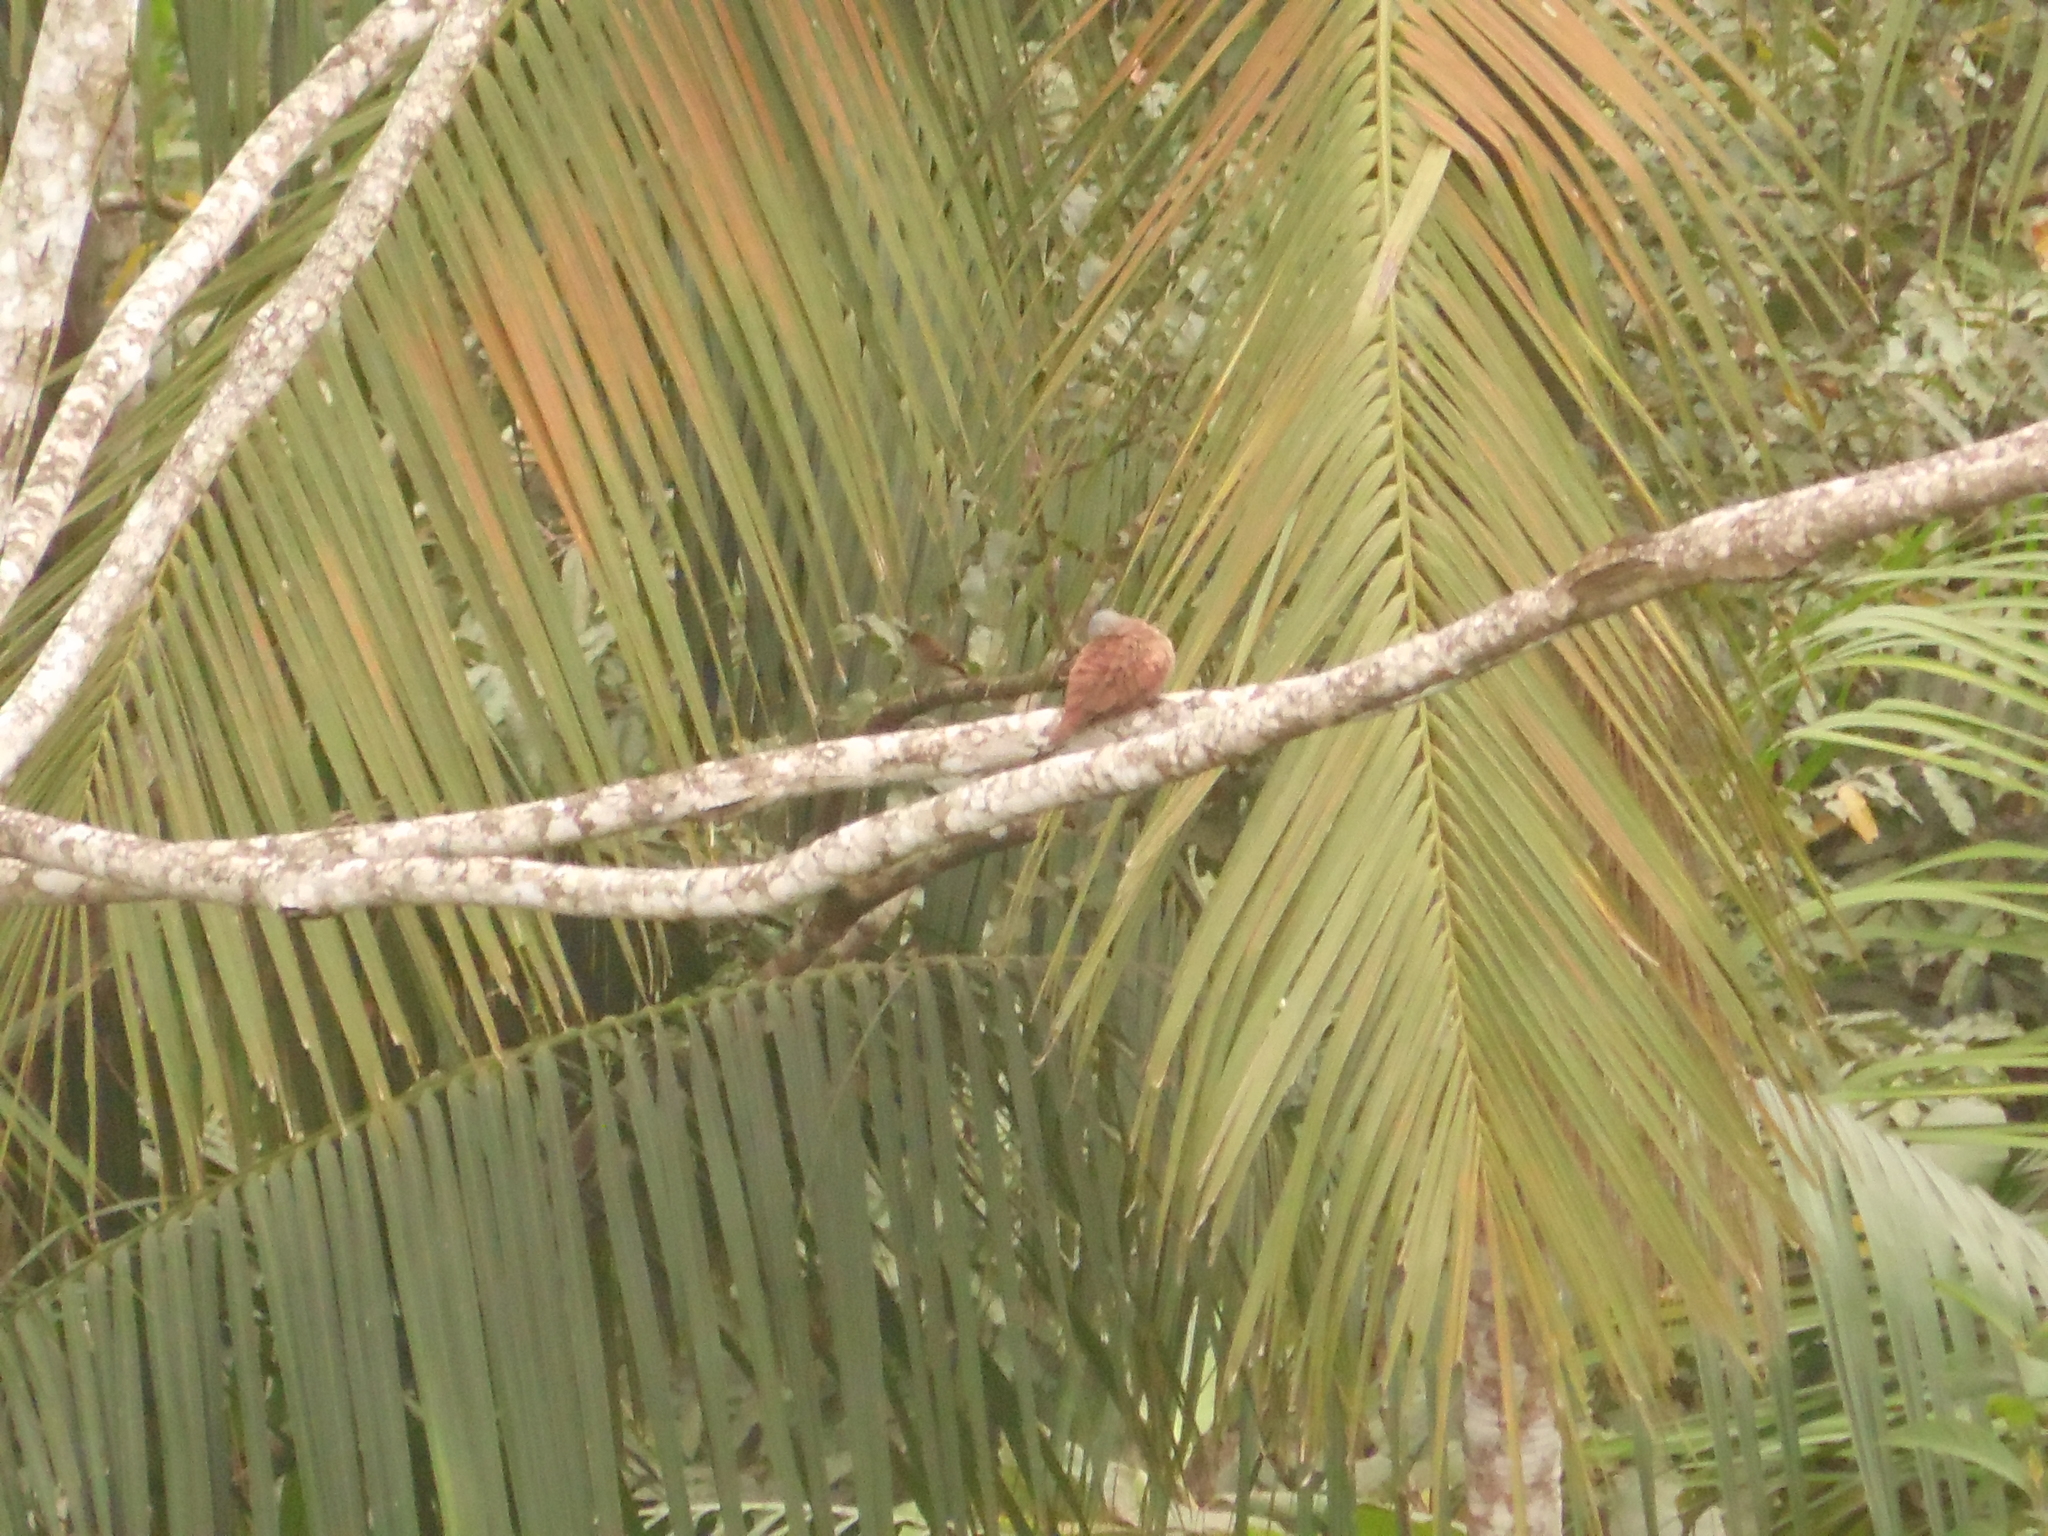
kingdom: Animalia
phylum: Chordata
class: Aves
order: Columbiformes
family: Columbidae
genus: Columbina
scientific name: Columbina talpacoti
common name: Ruddy ground dove
